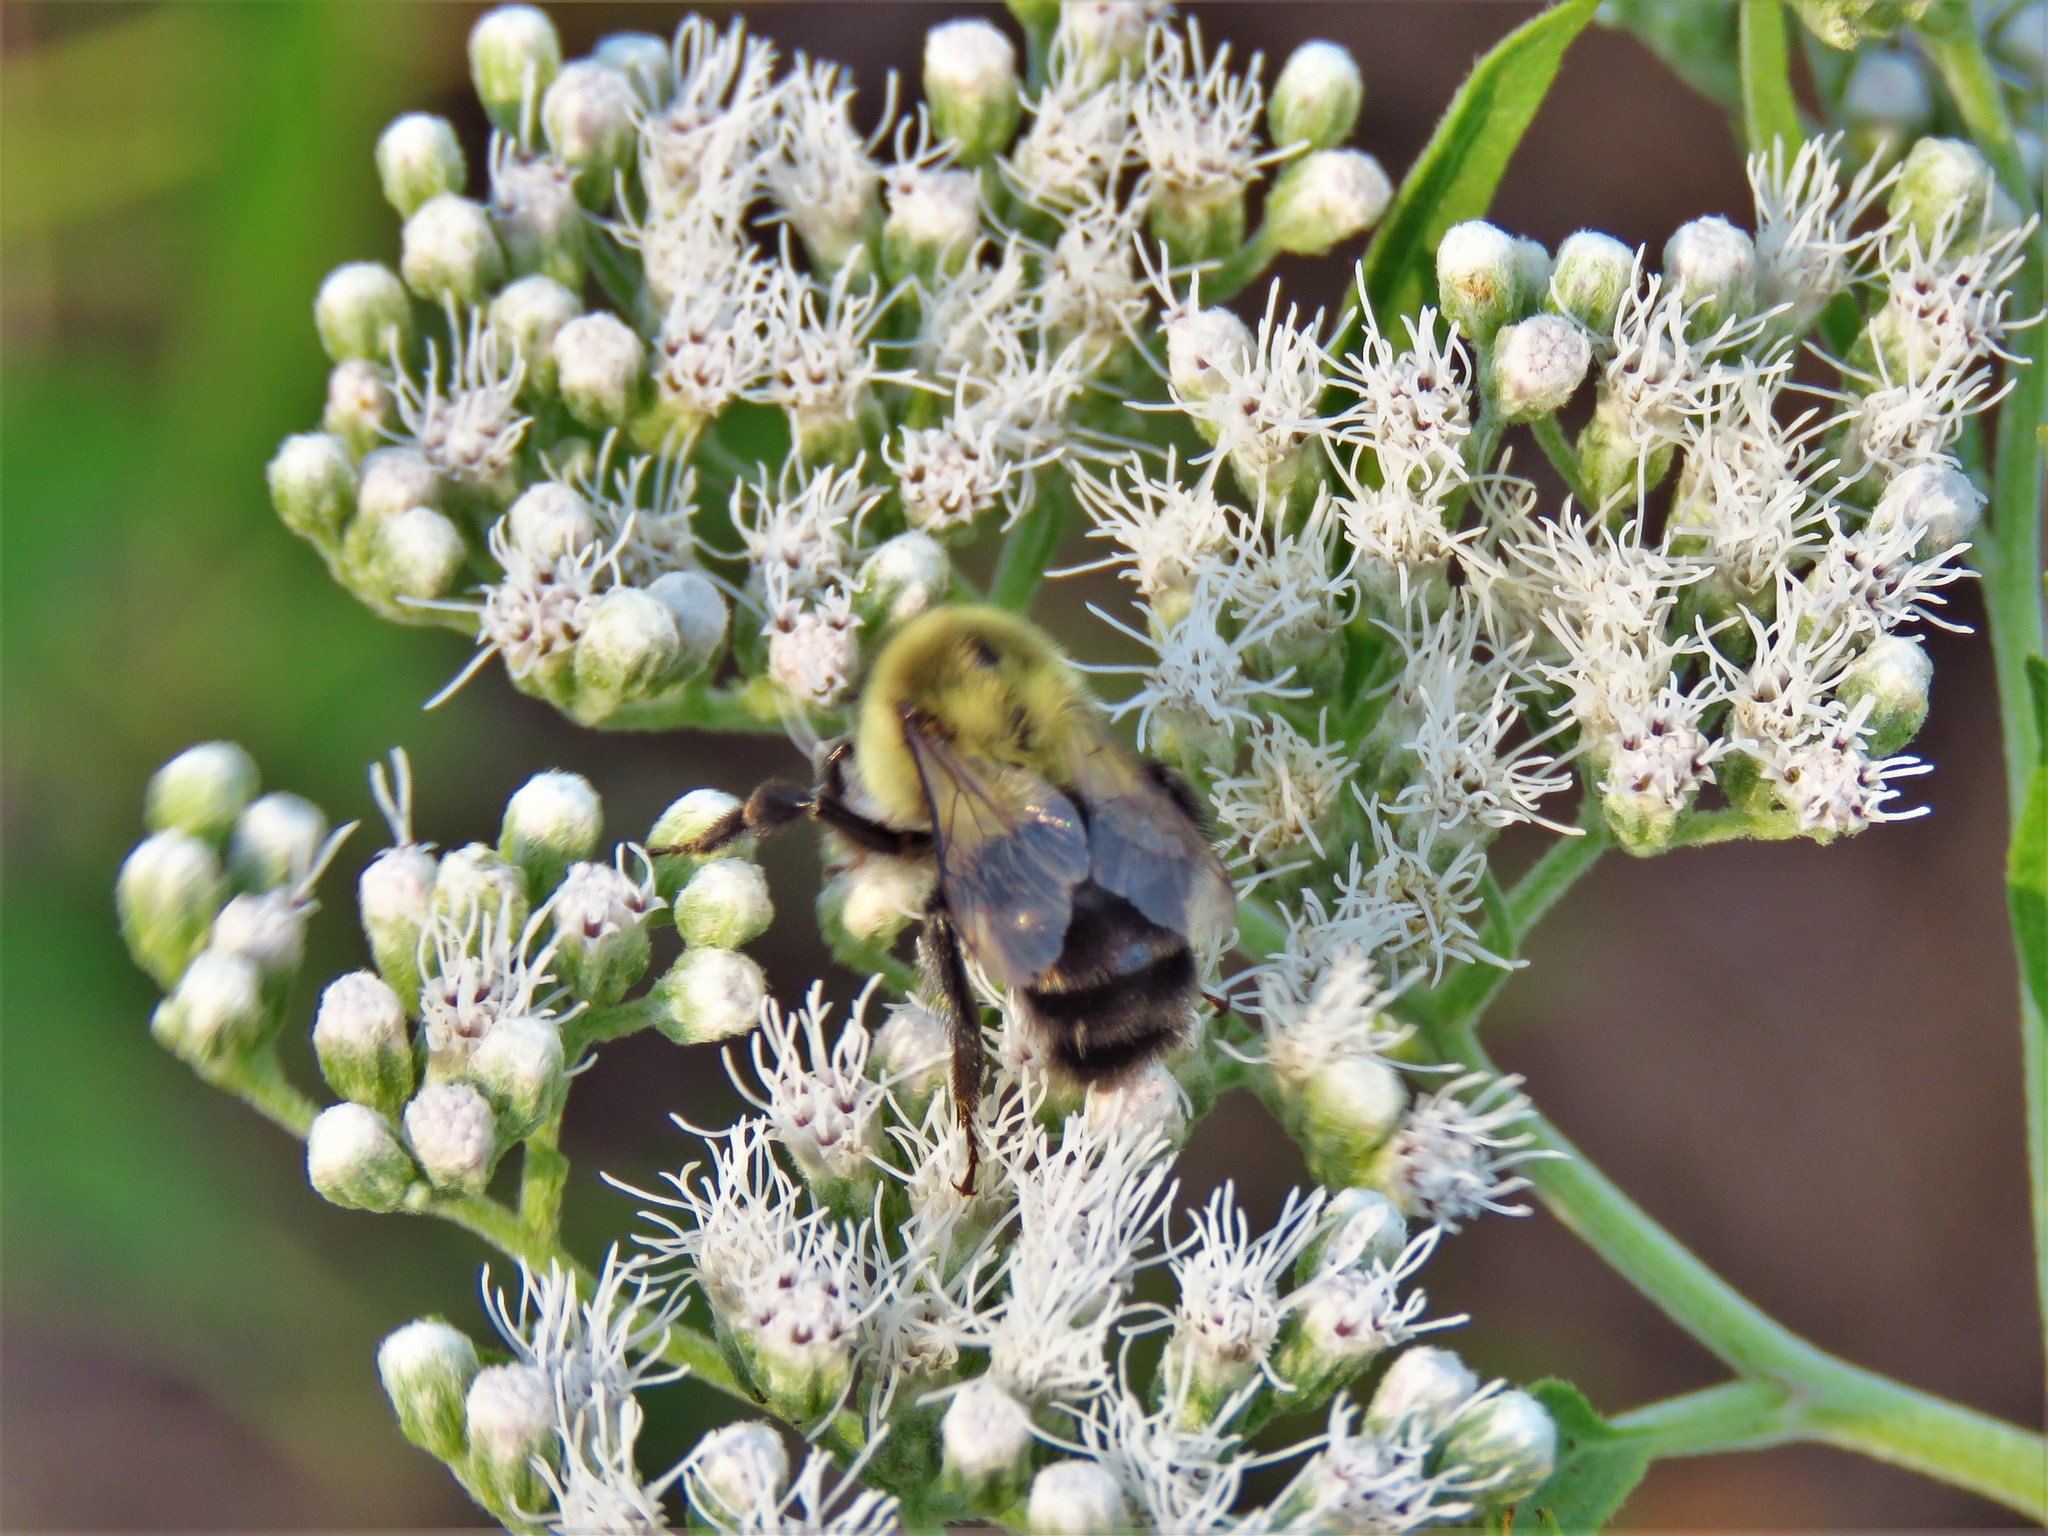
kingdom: Animalia
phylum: Arthropoda
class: Insecta
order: Hymenoptera
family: Apidae
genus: Bombus
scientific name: Bombus impatiens
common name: Common eastern bumble bee
